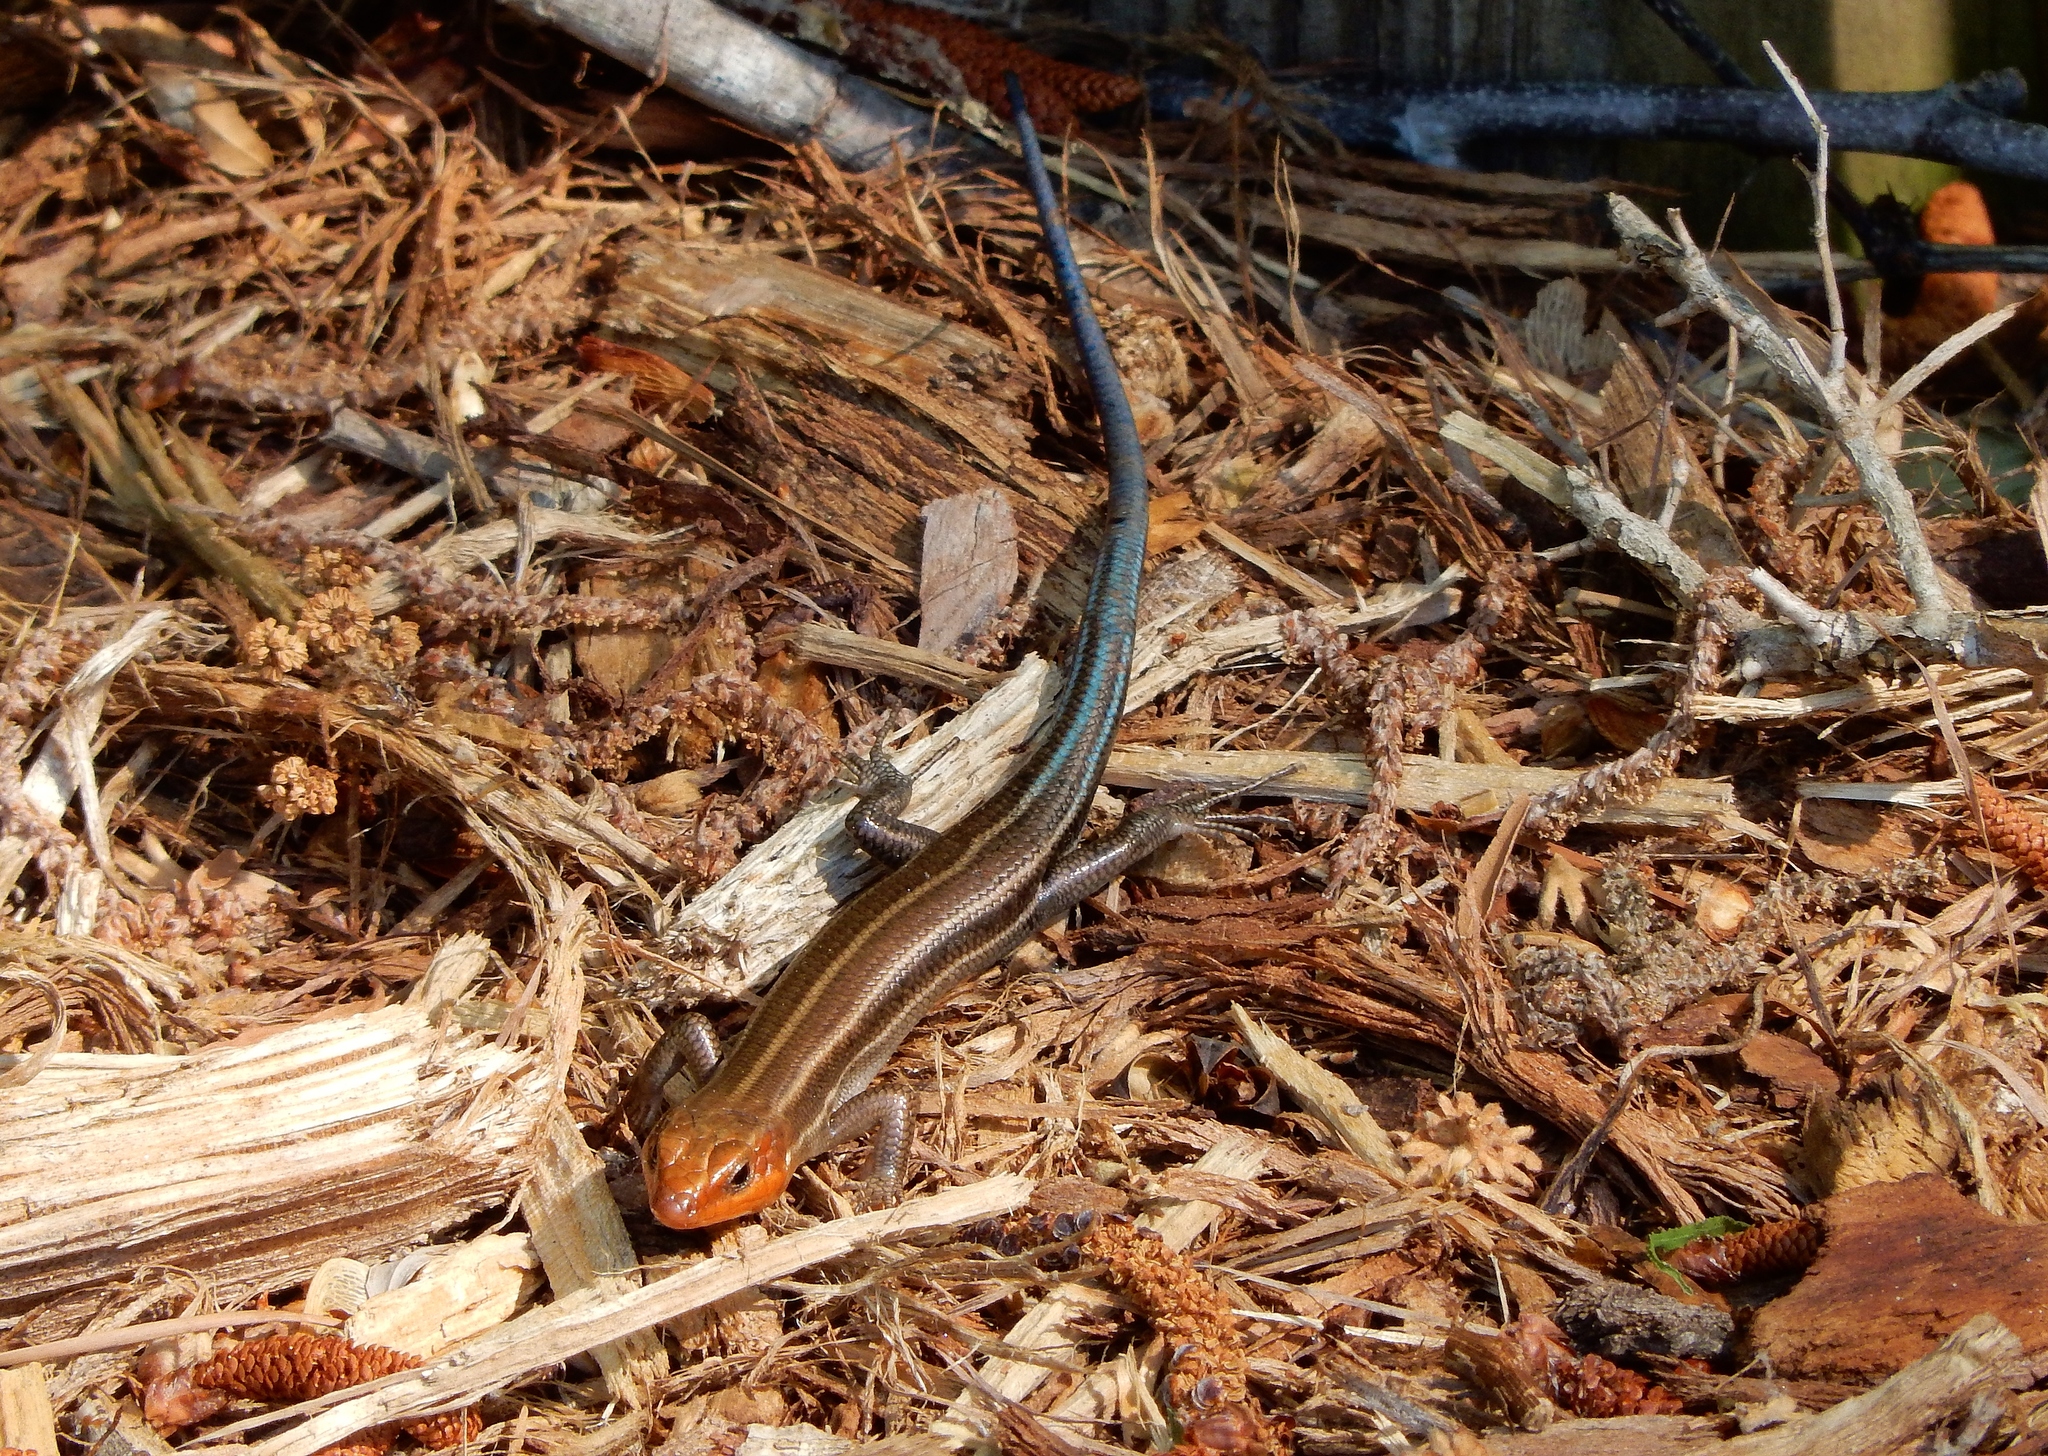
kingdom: Animalia
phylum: Chordata
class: Squamata
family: Scincidae
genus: Plestiodon
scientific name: Plestiodon fasciatus
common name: Five-lined skink
